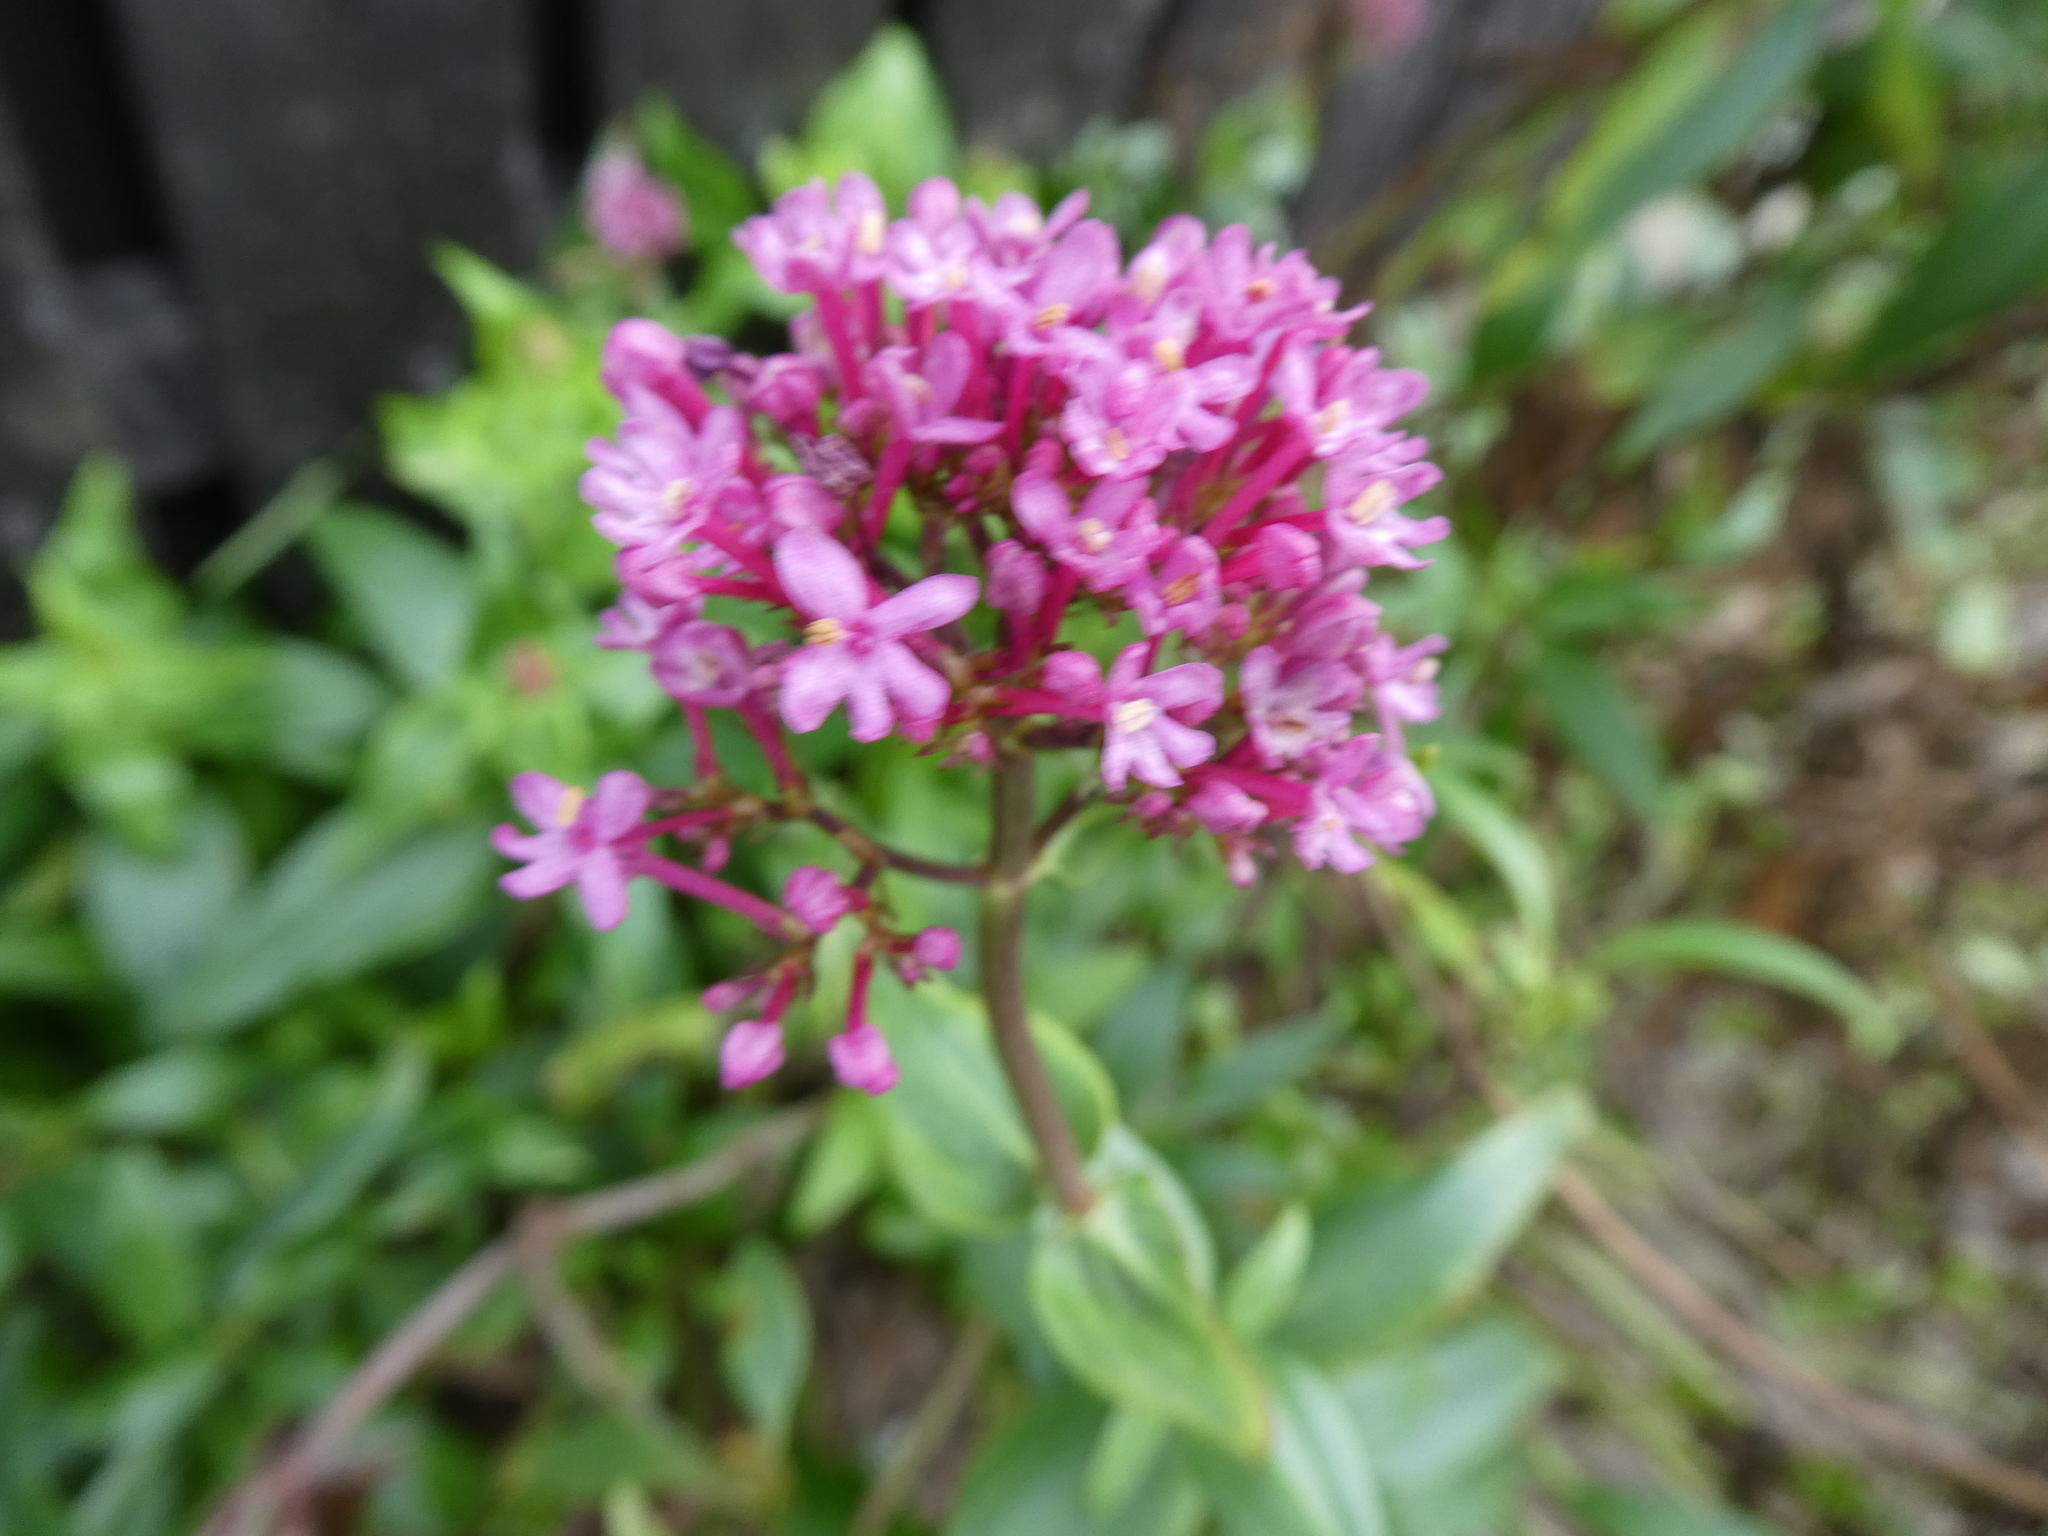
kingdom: Plantae
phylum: Tracheophyta
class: Magnoliopsida
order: Dipsacales
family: Caprifoliaceae
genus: Centranthus
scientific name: Centranthus ruber
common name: Red valerian
